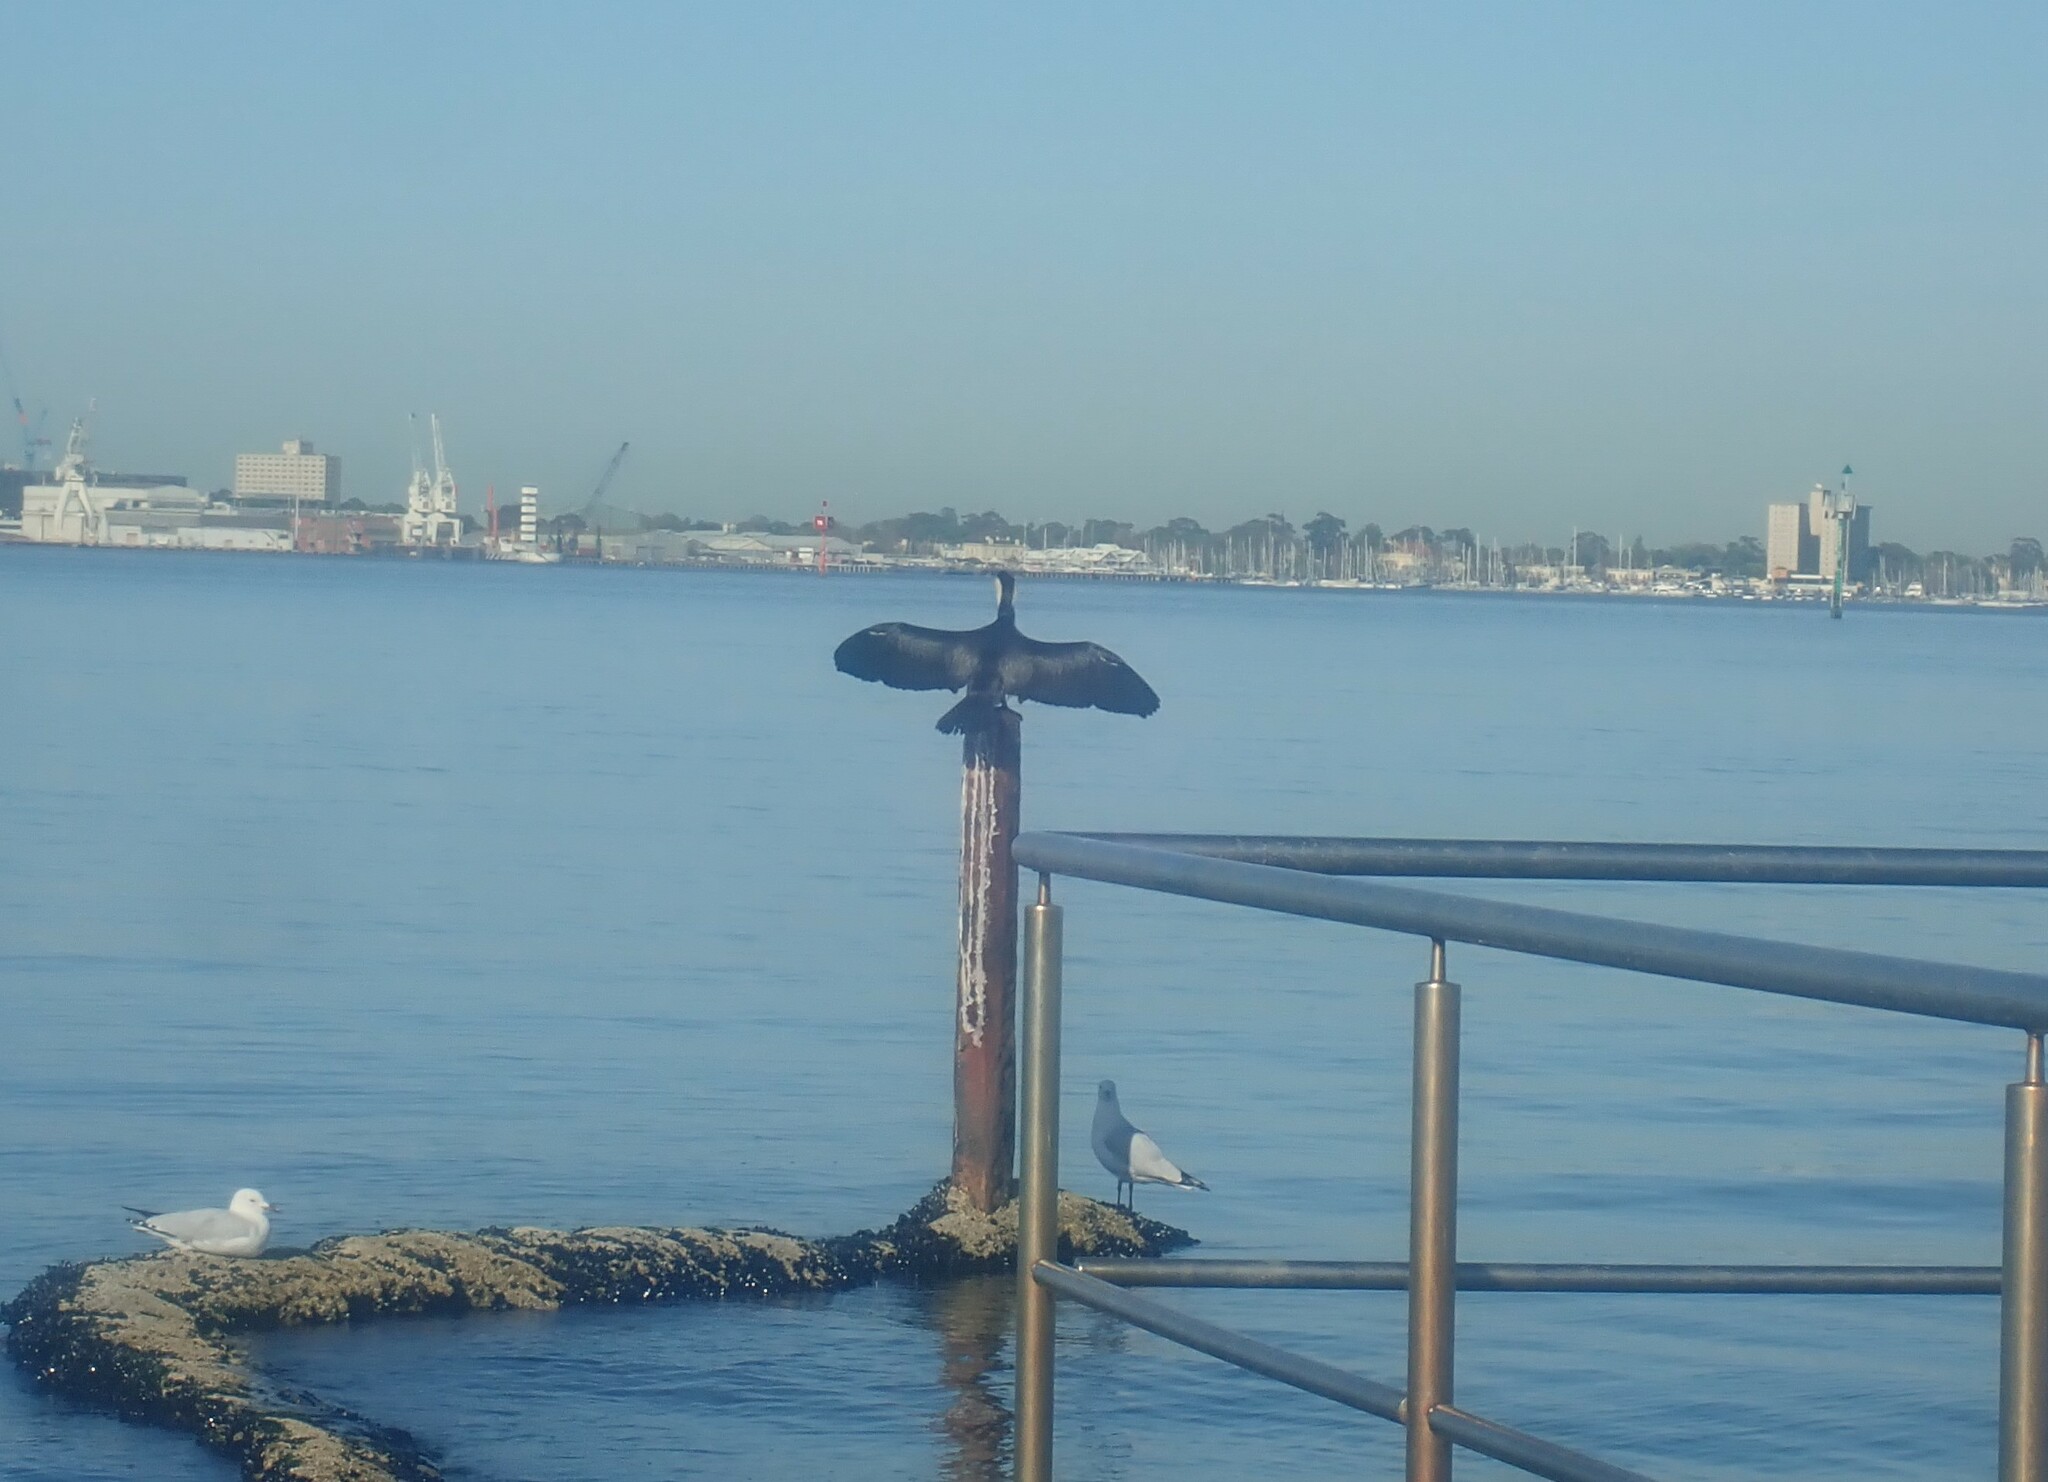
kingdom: Animalia
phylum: Chordata
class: Aves
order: Suliformes
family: Phalacrocoracidae
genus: Microcarbo
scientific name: Microcarbo melanoleucos
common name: Little pied cormorant
